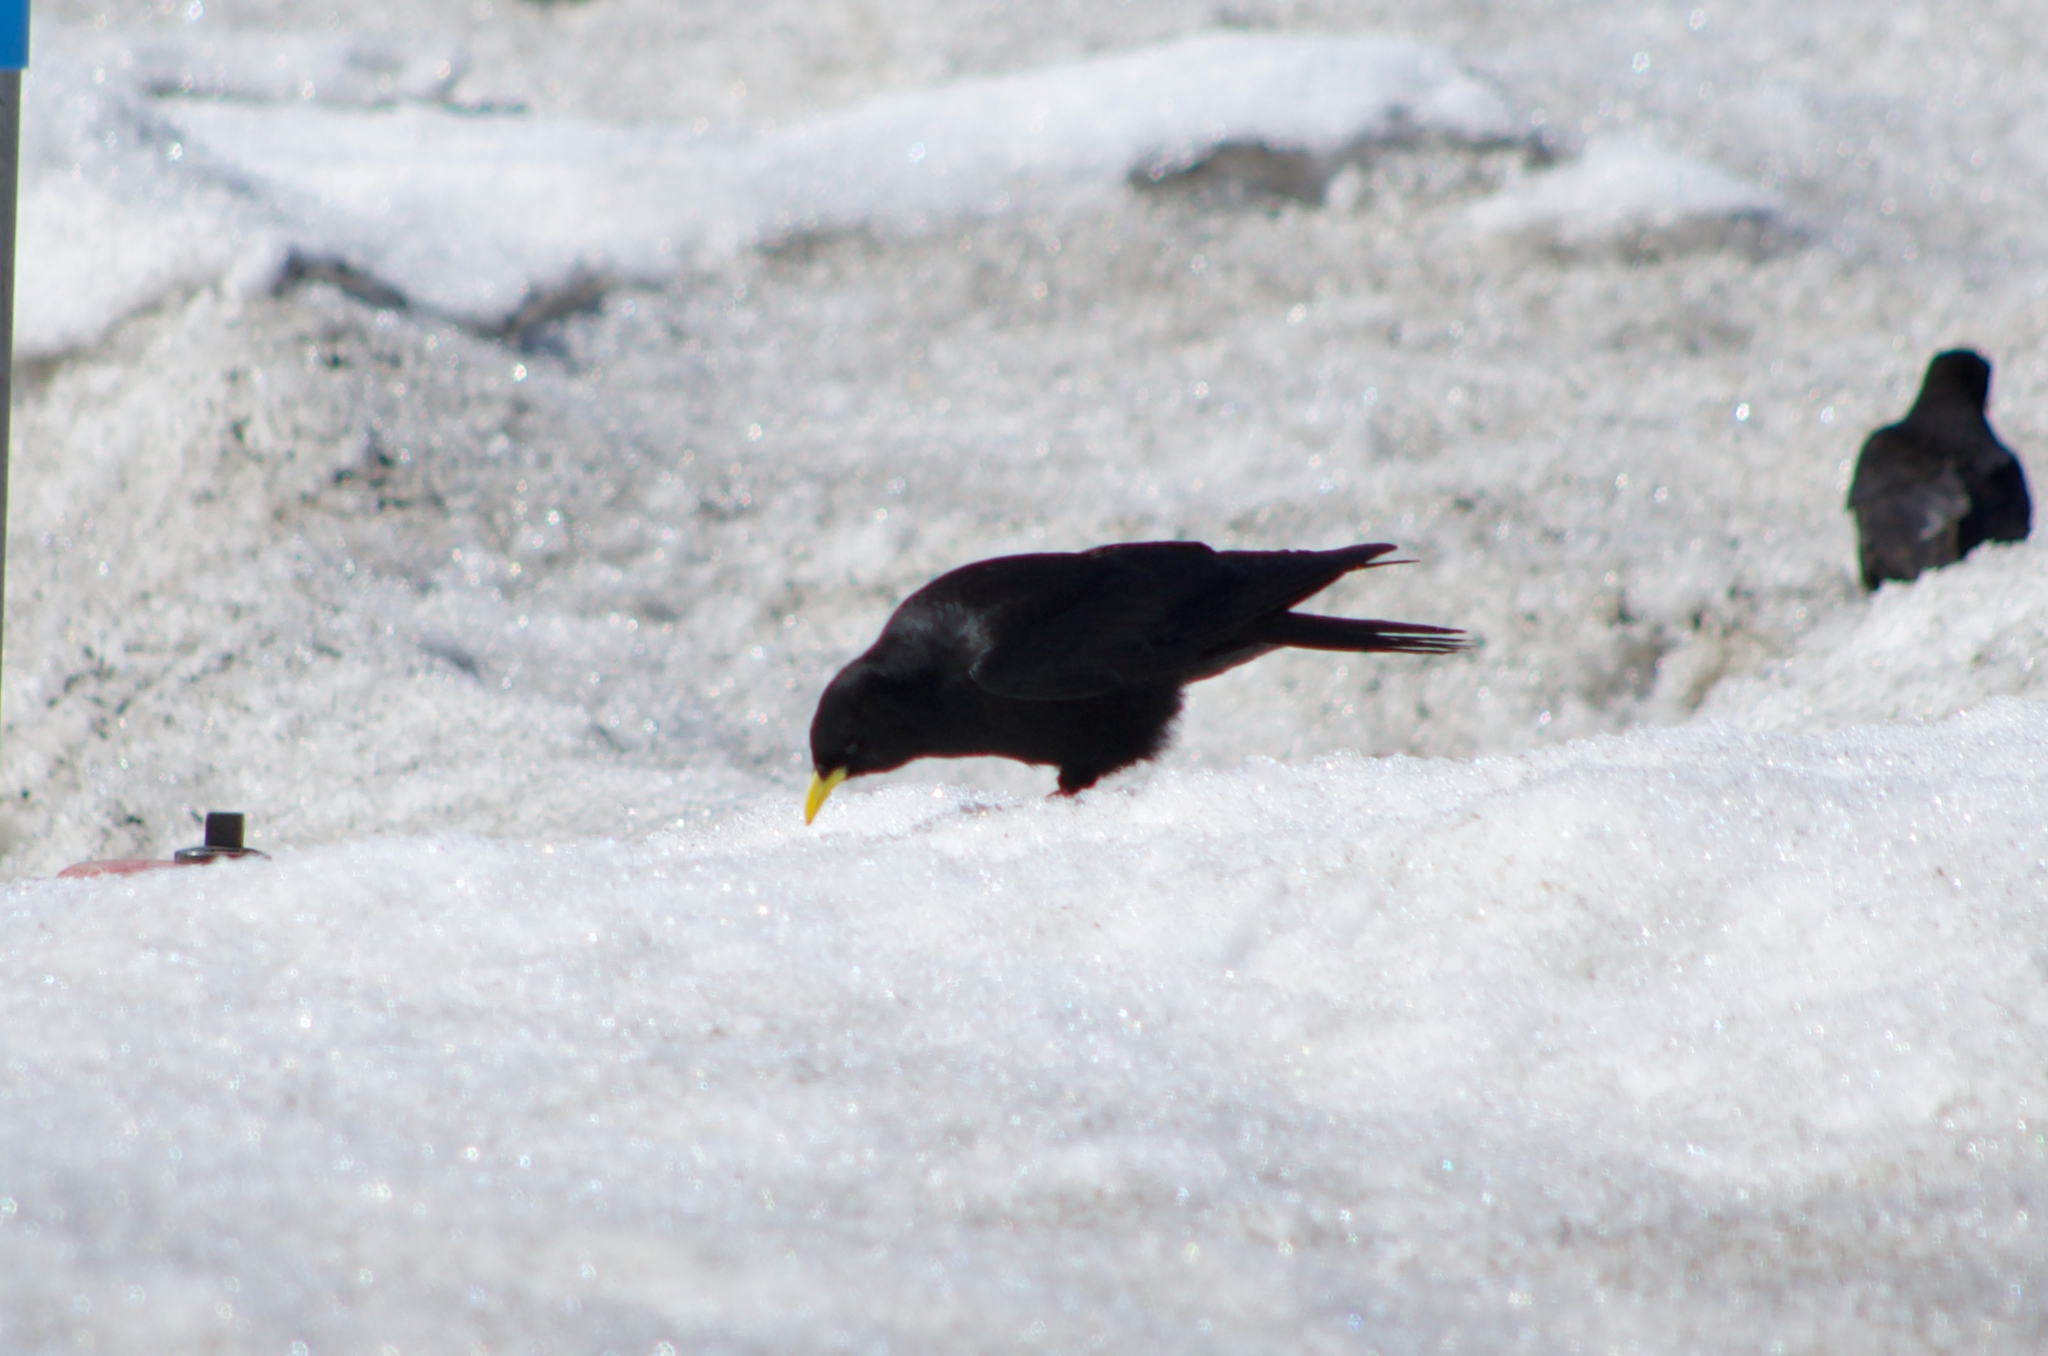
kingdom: Animalia
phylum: Chordata
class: Aves
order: Passeriformes
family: Corvidae
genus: Pyrrhocorax
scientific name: Pyrrhocorax graculus
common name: Alpine chough
